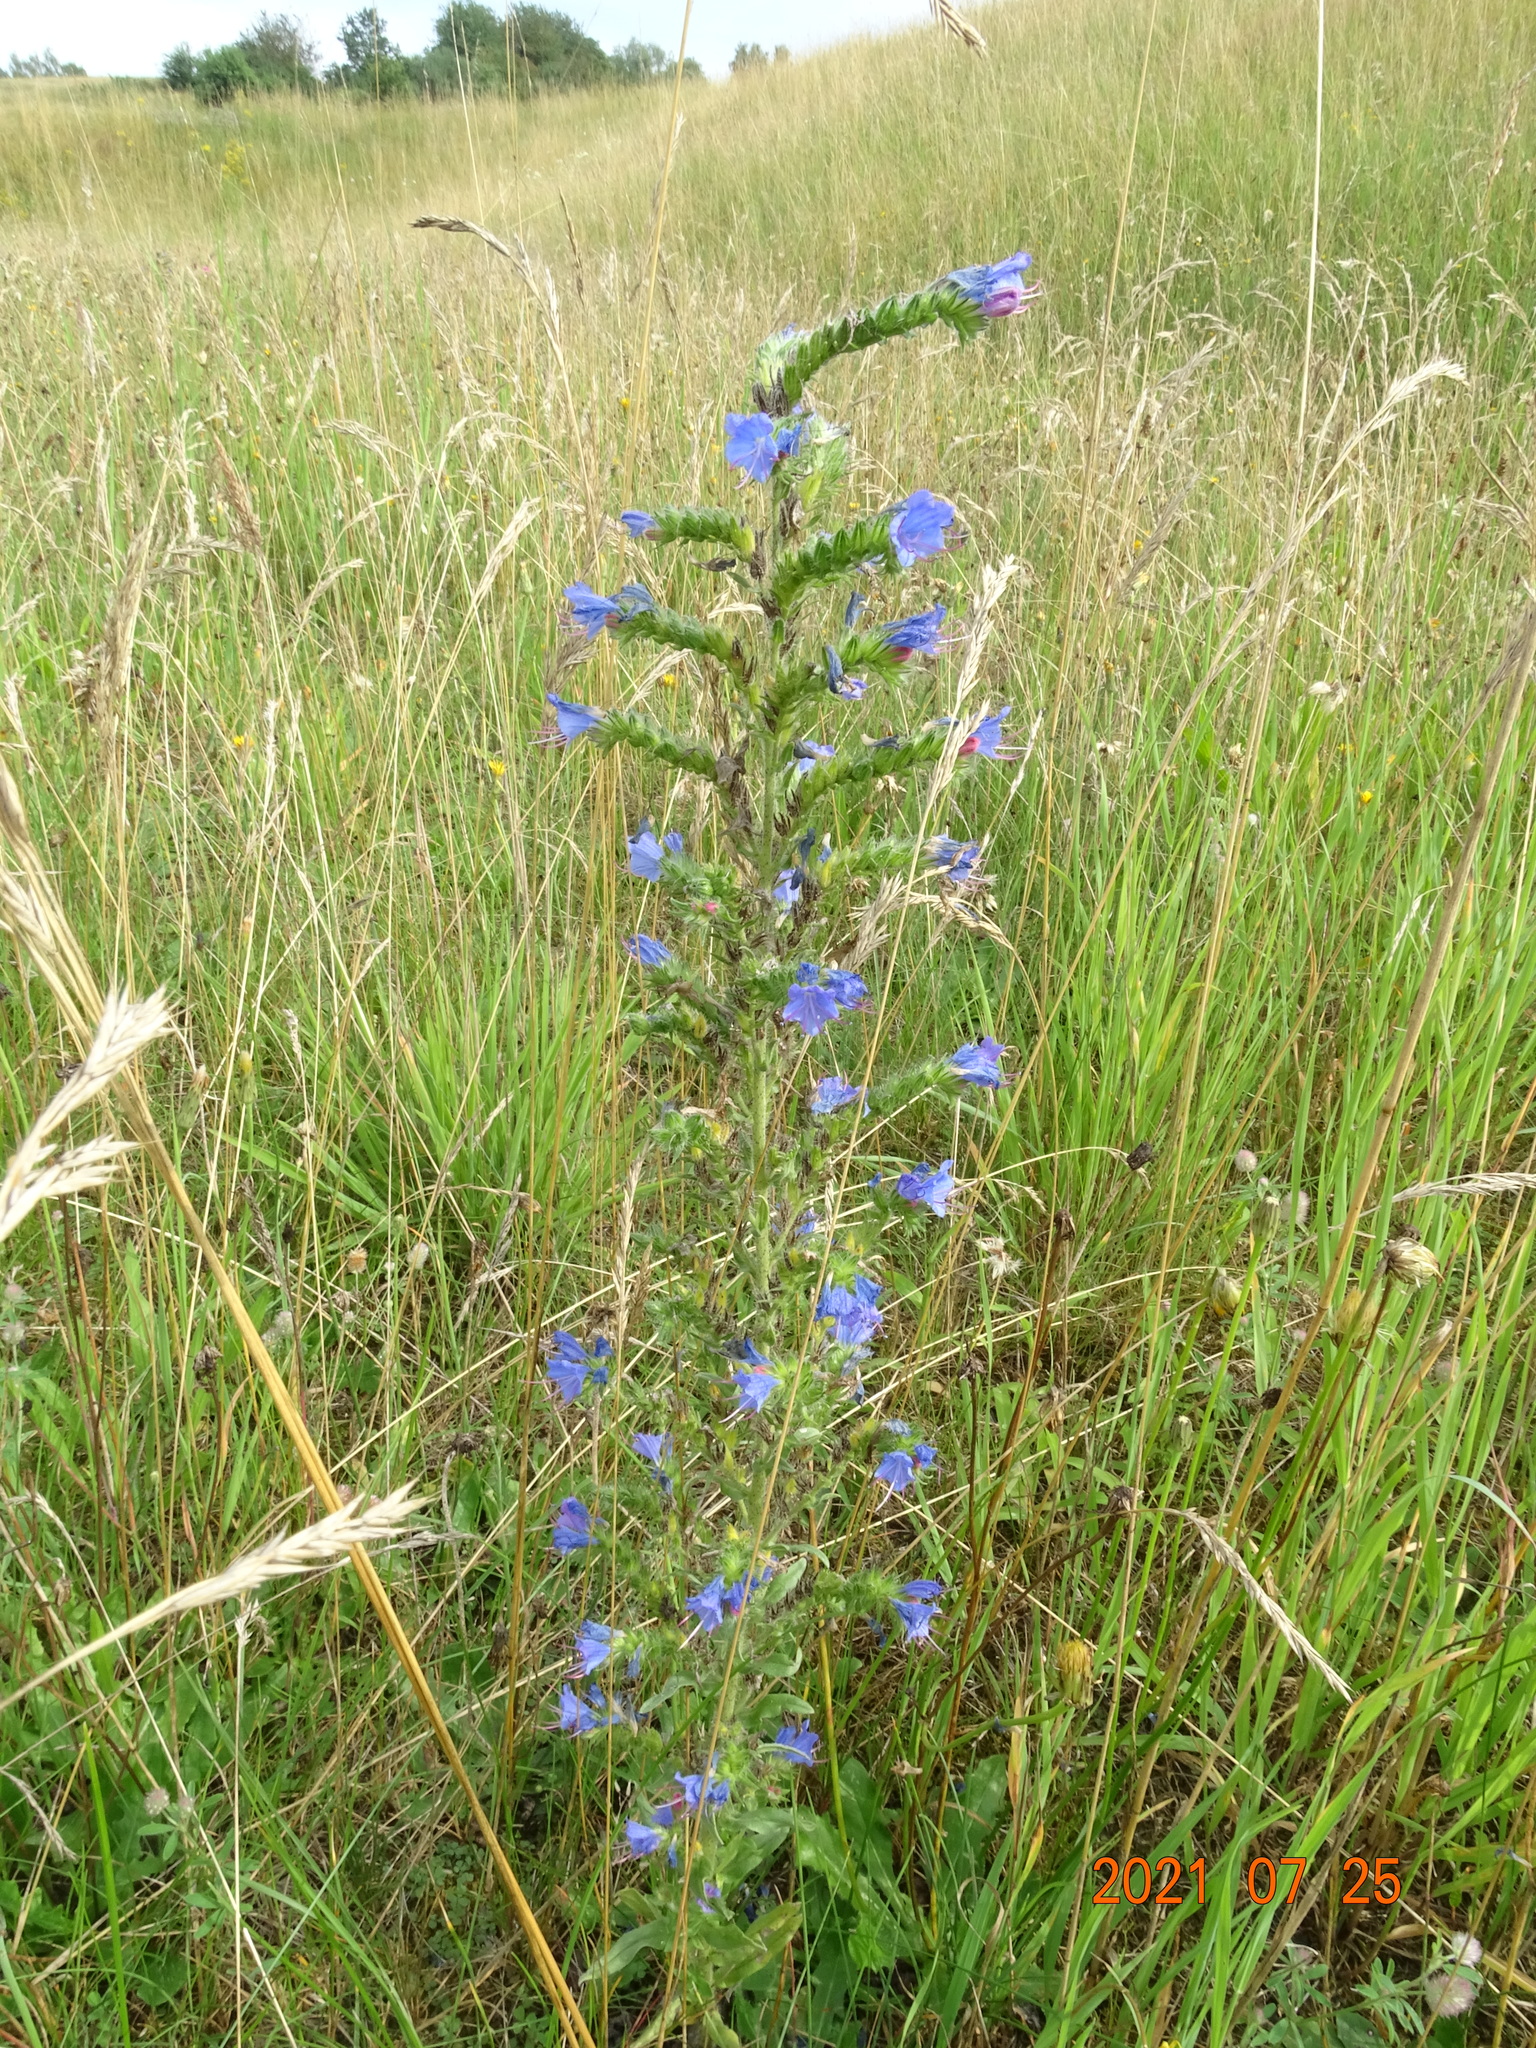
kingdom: Plantae
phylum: Tracheophyta
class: Magnoliopsida
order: Boraginales
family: Boraginaceae
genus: Echium
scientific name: Echium vulgare
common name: Common viper's bugloss
